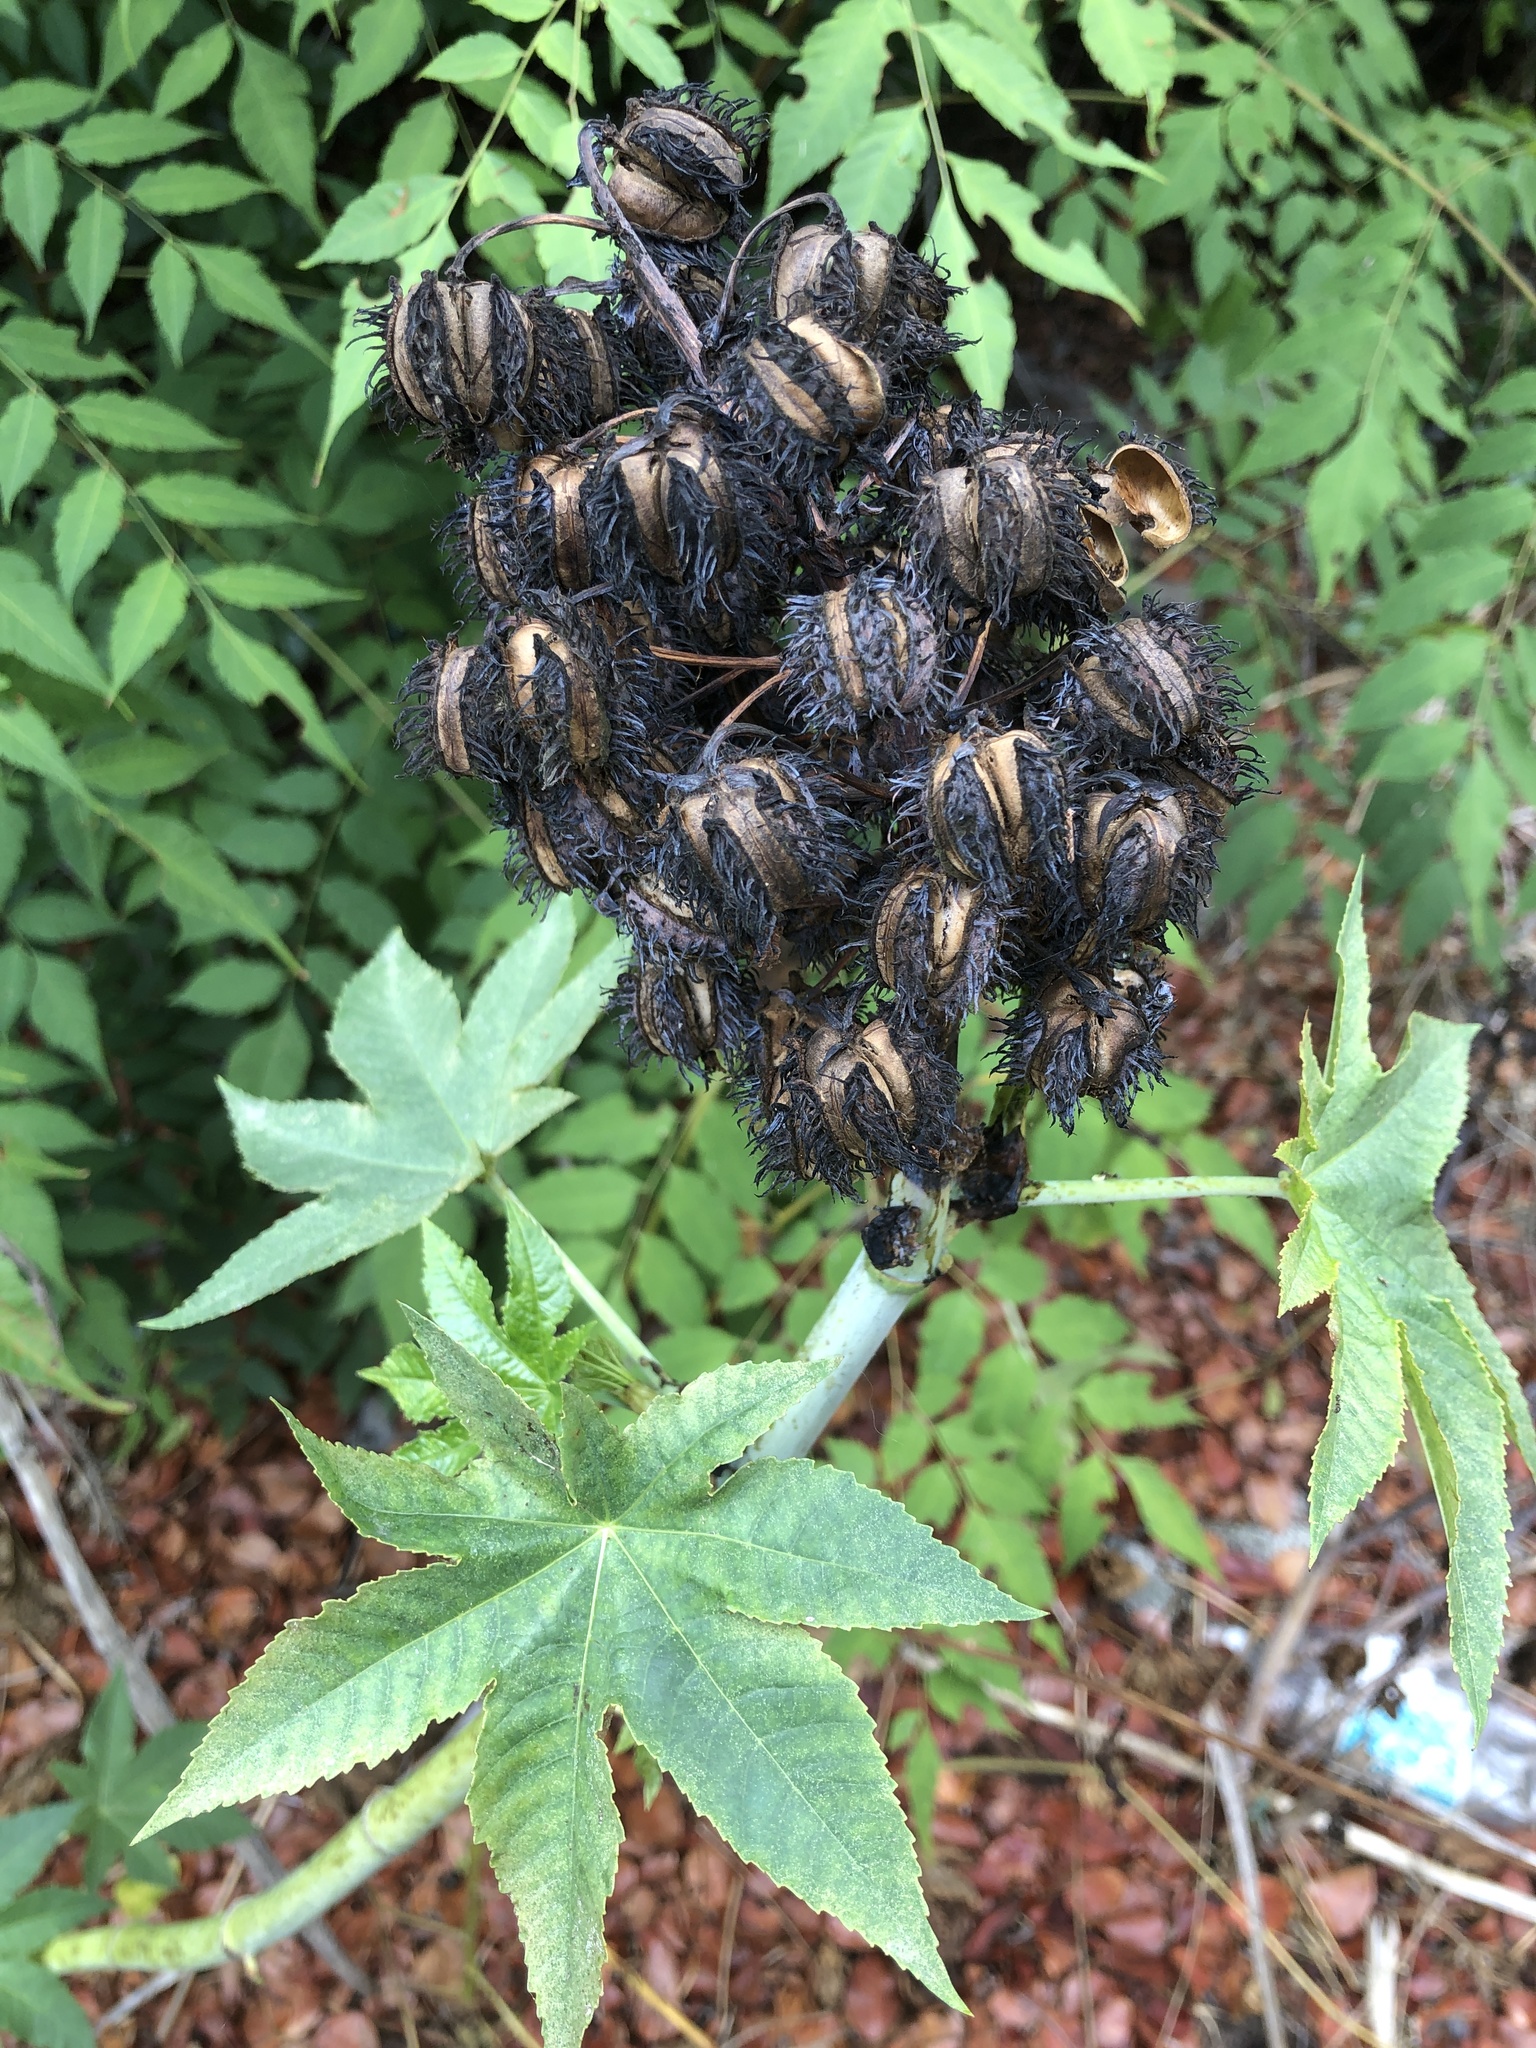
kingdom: Plantae
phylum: Tracheophyta
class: Magnoliopsida
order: Malpighiales
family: Euphorbiaceae
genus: Ricinus
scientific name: Ricinus communis
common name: Castor-oil-plant
